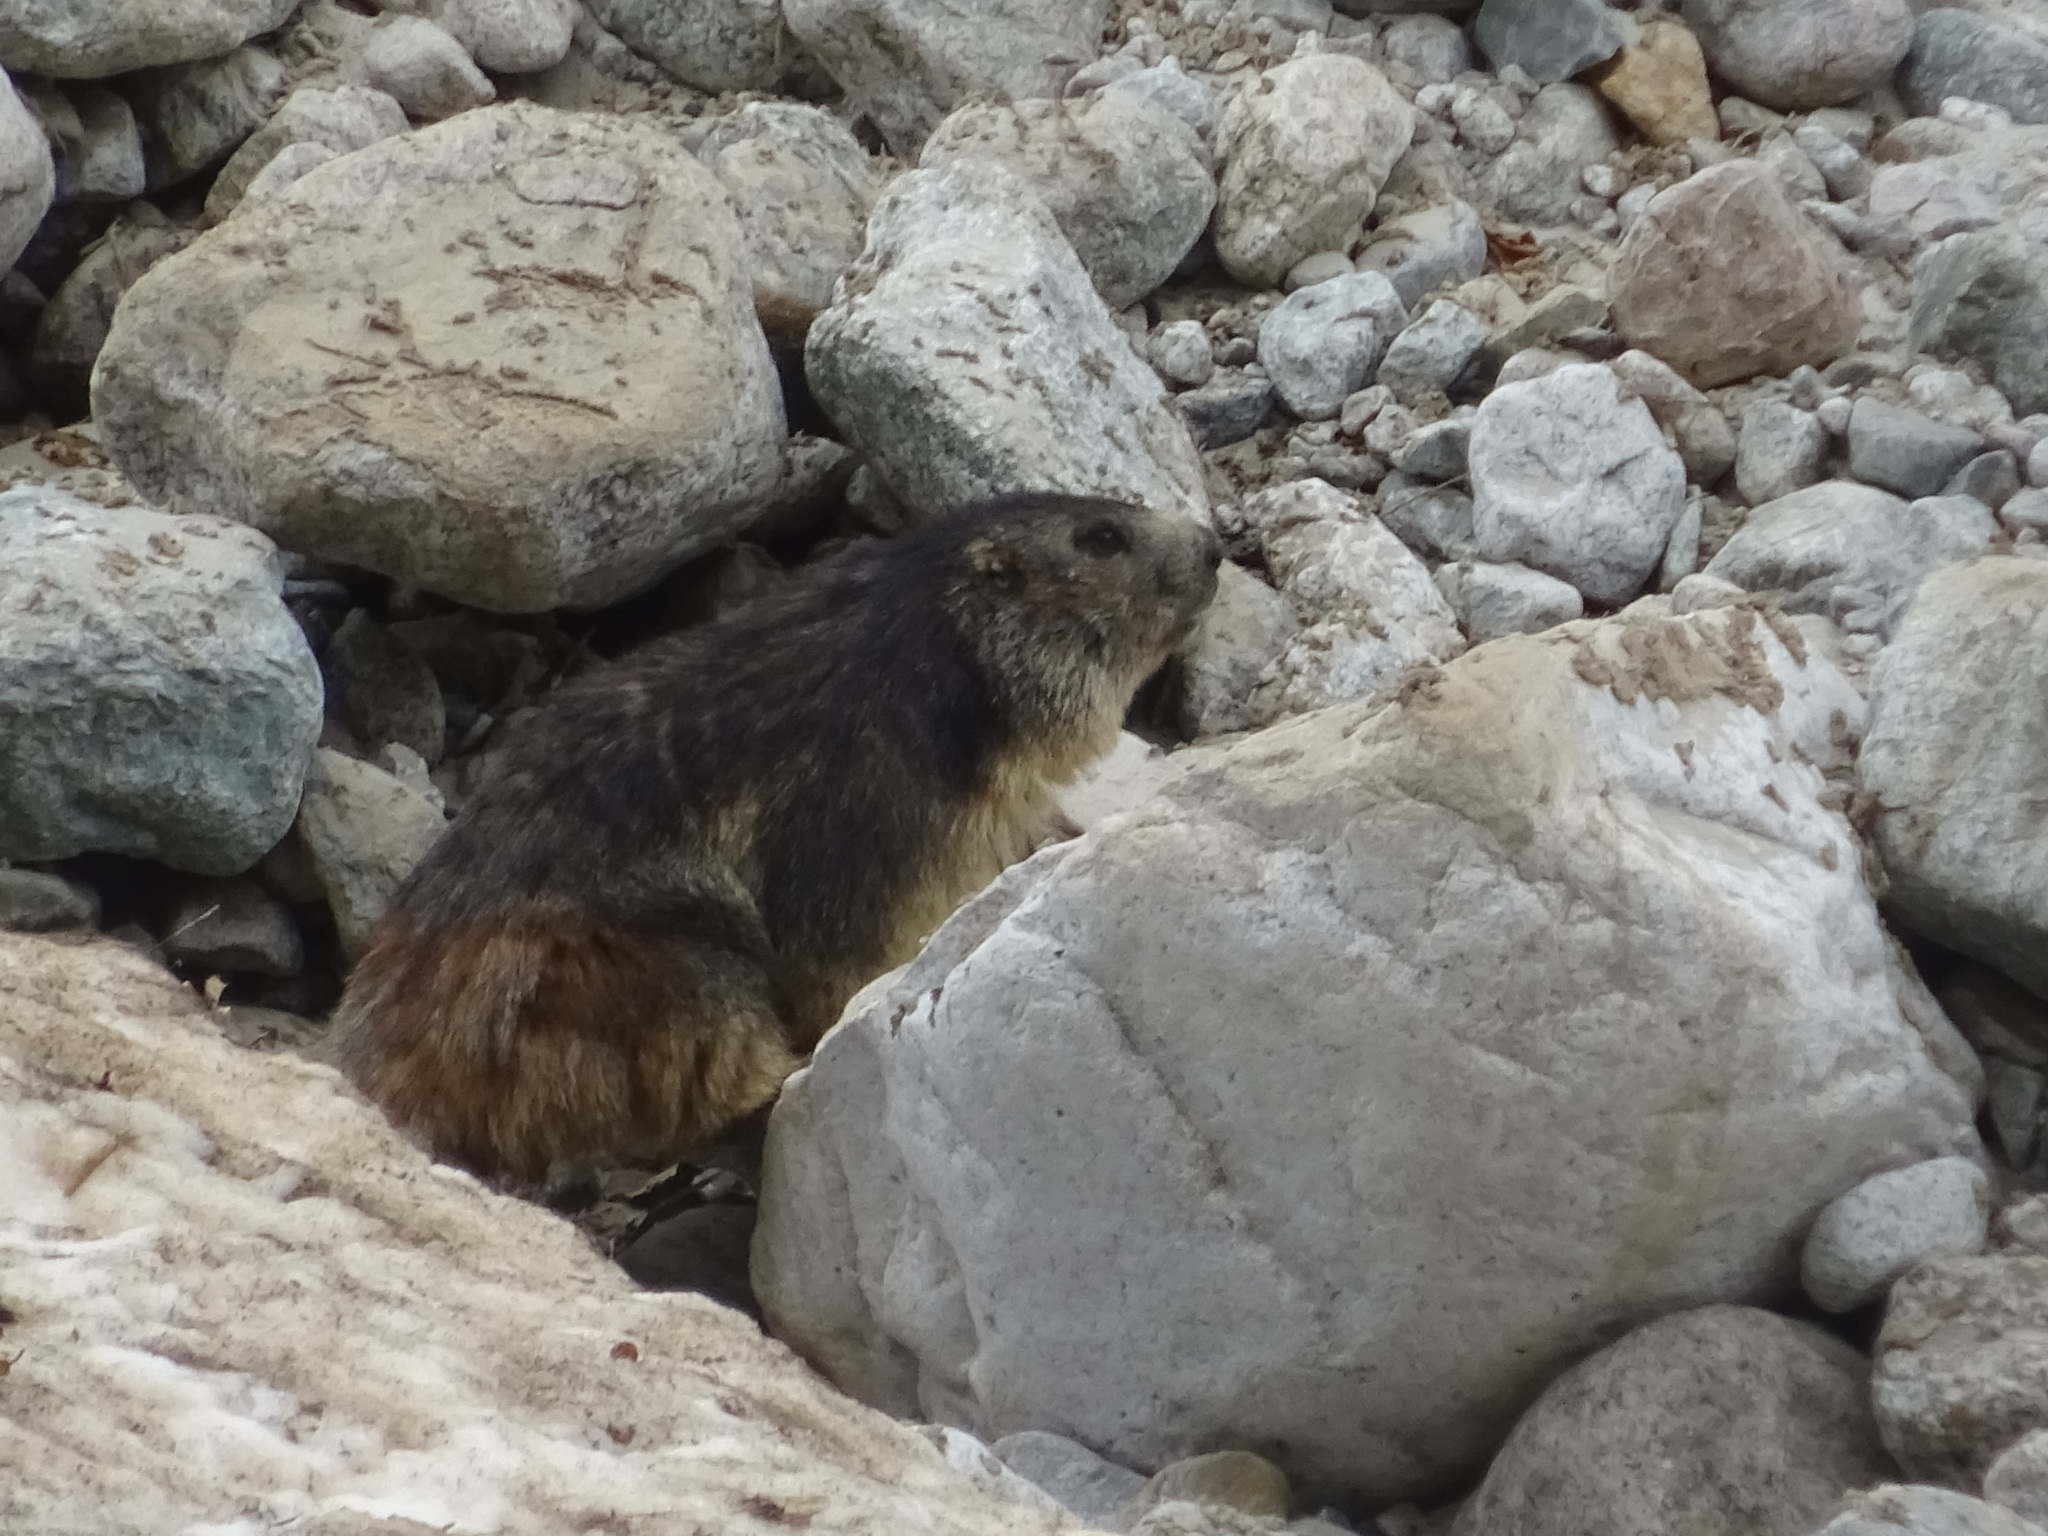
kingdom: Animalia
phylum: Chordata
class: Mammalia
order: Rodentia
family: Sciuridae
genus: Marmota
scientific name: Marmota marmota
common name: Alpine marmot
